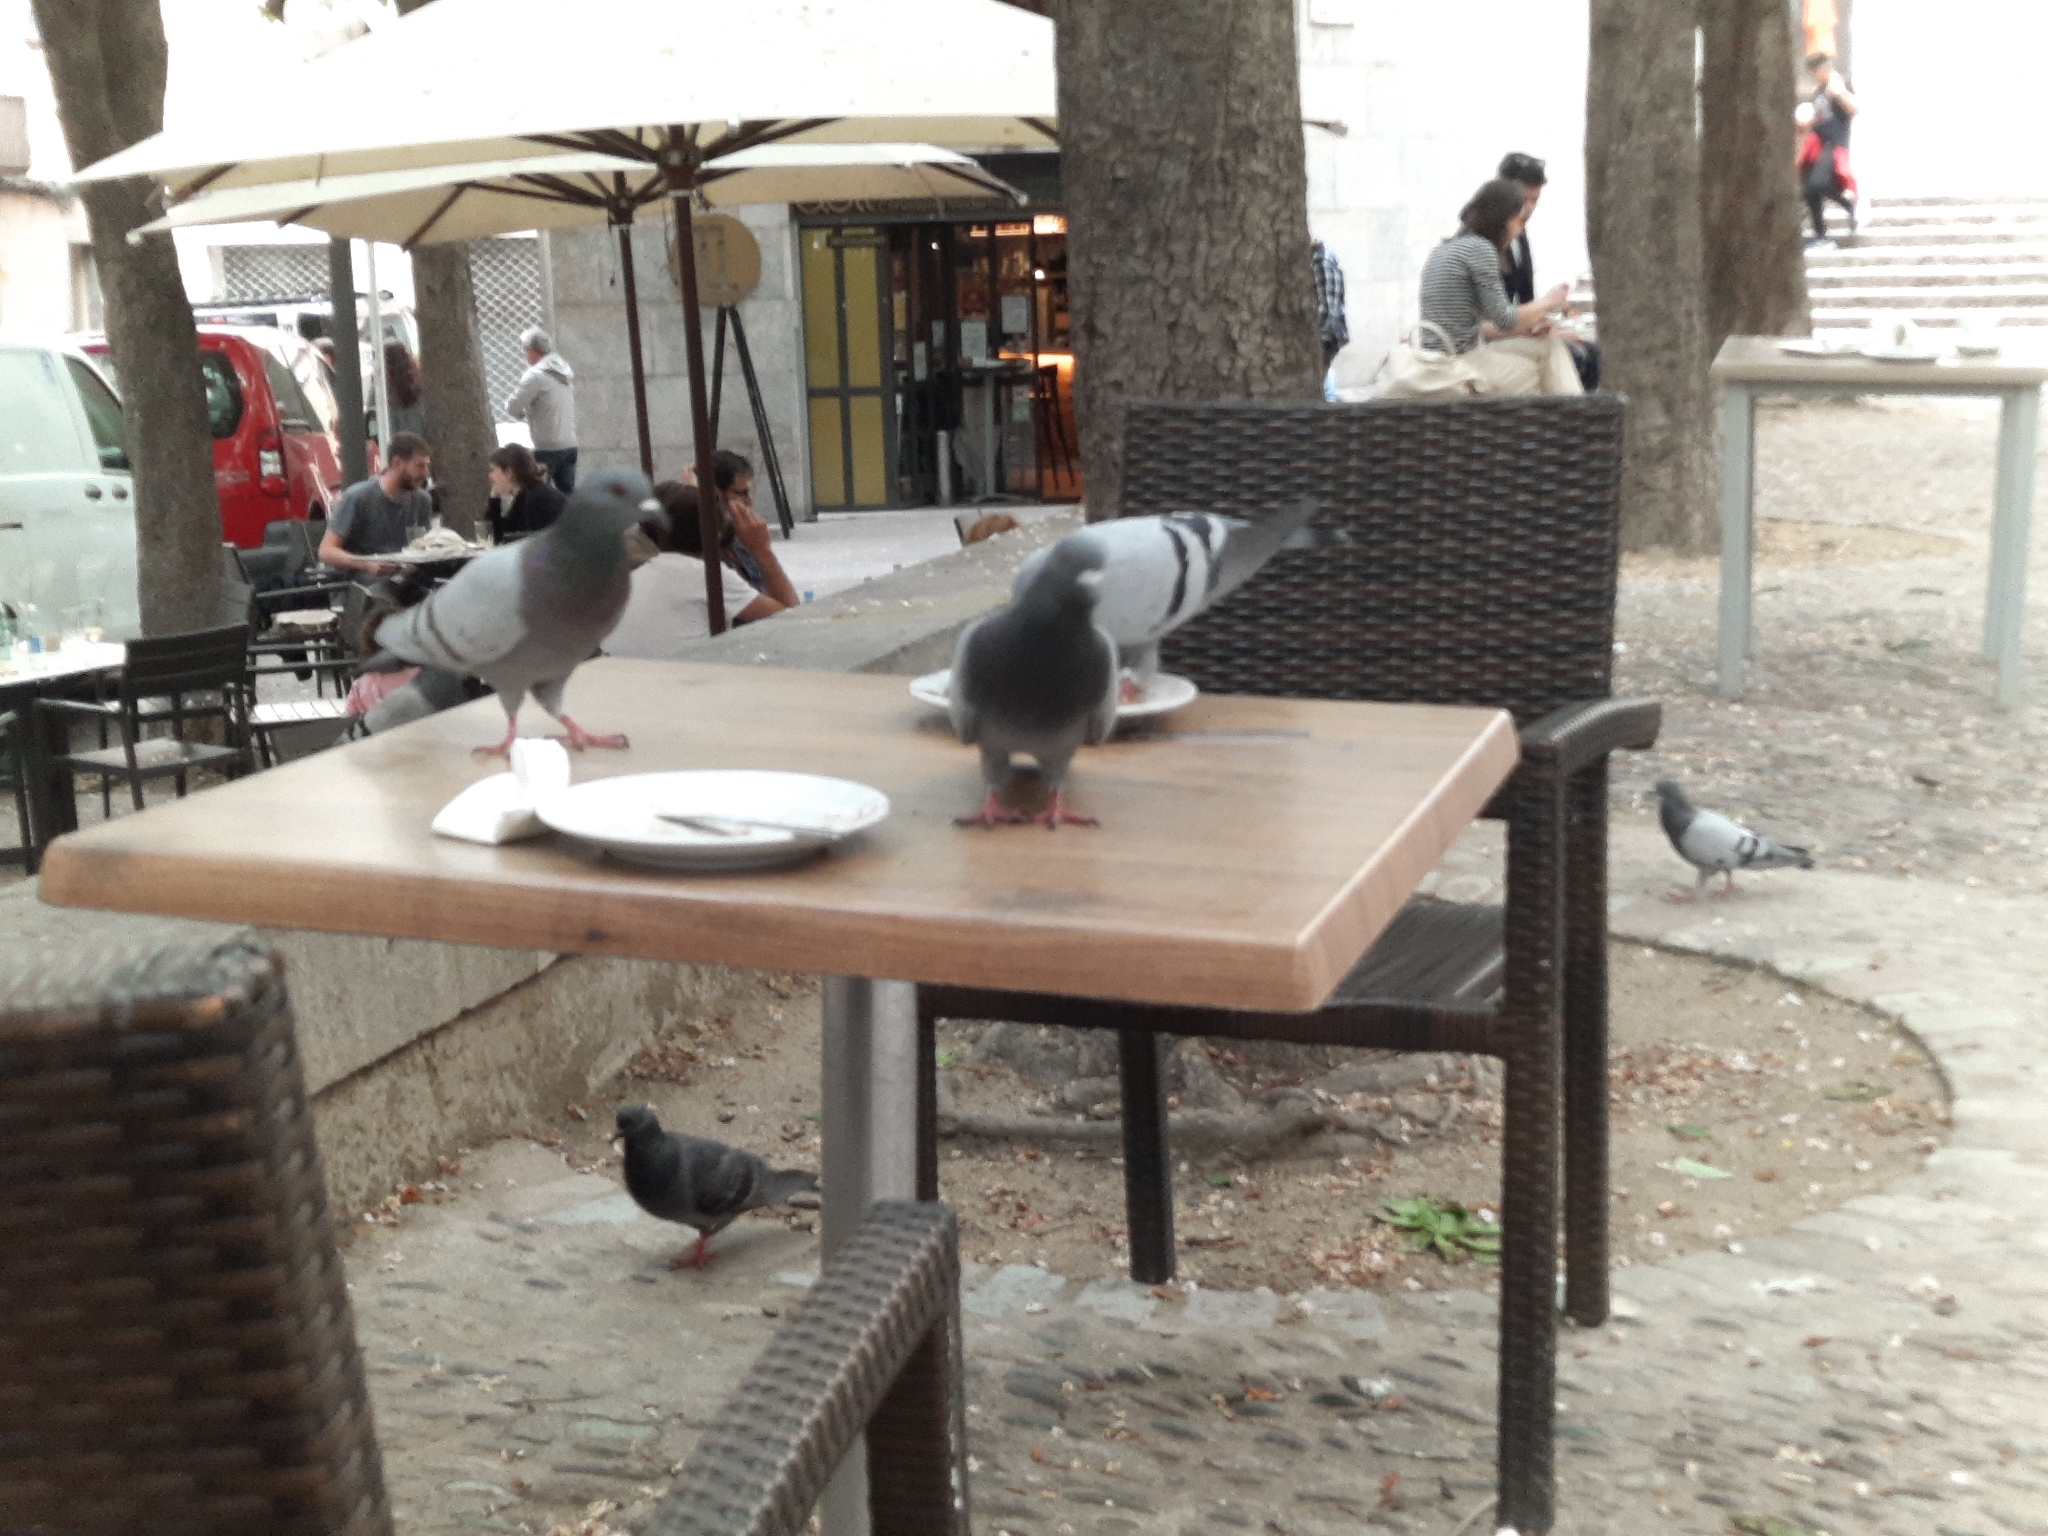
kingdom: Animalia
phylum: Chordata
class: Aves
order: Columbiformes
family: Columbidae
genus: Columba
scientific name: Columba livia
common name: Rock pigeon
